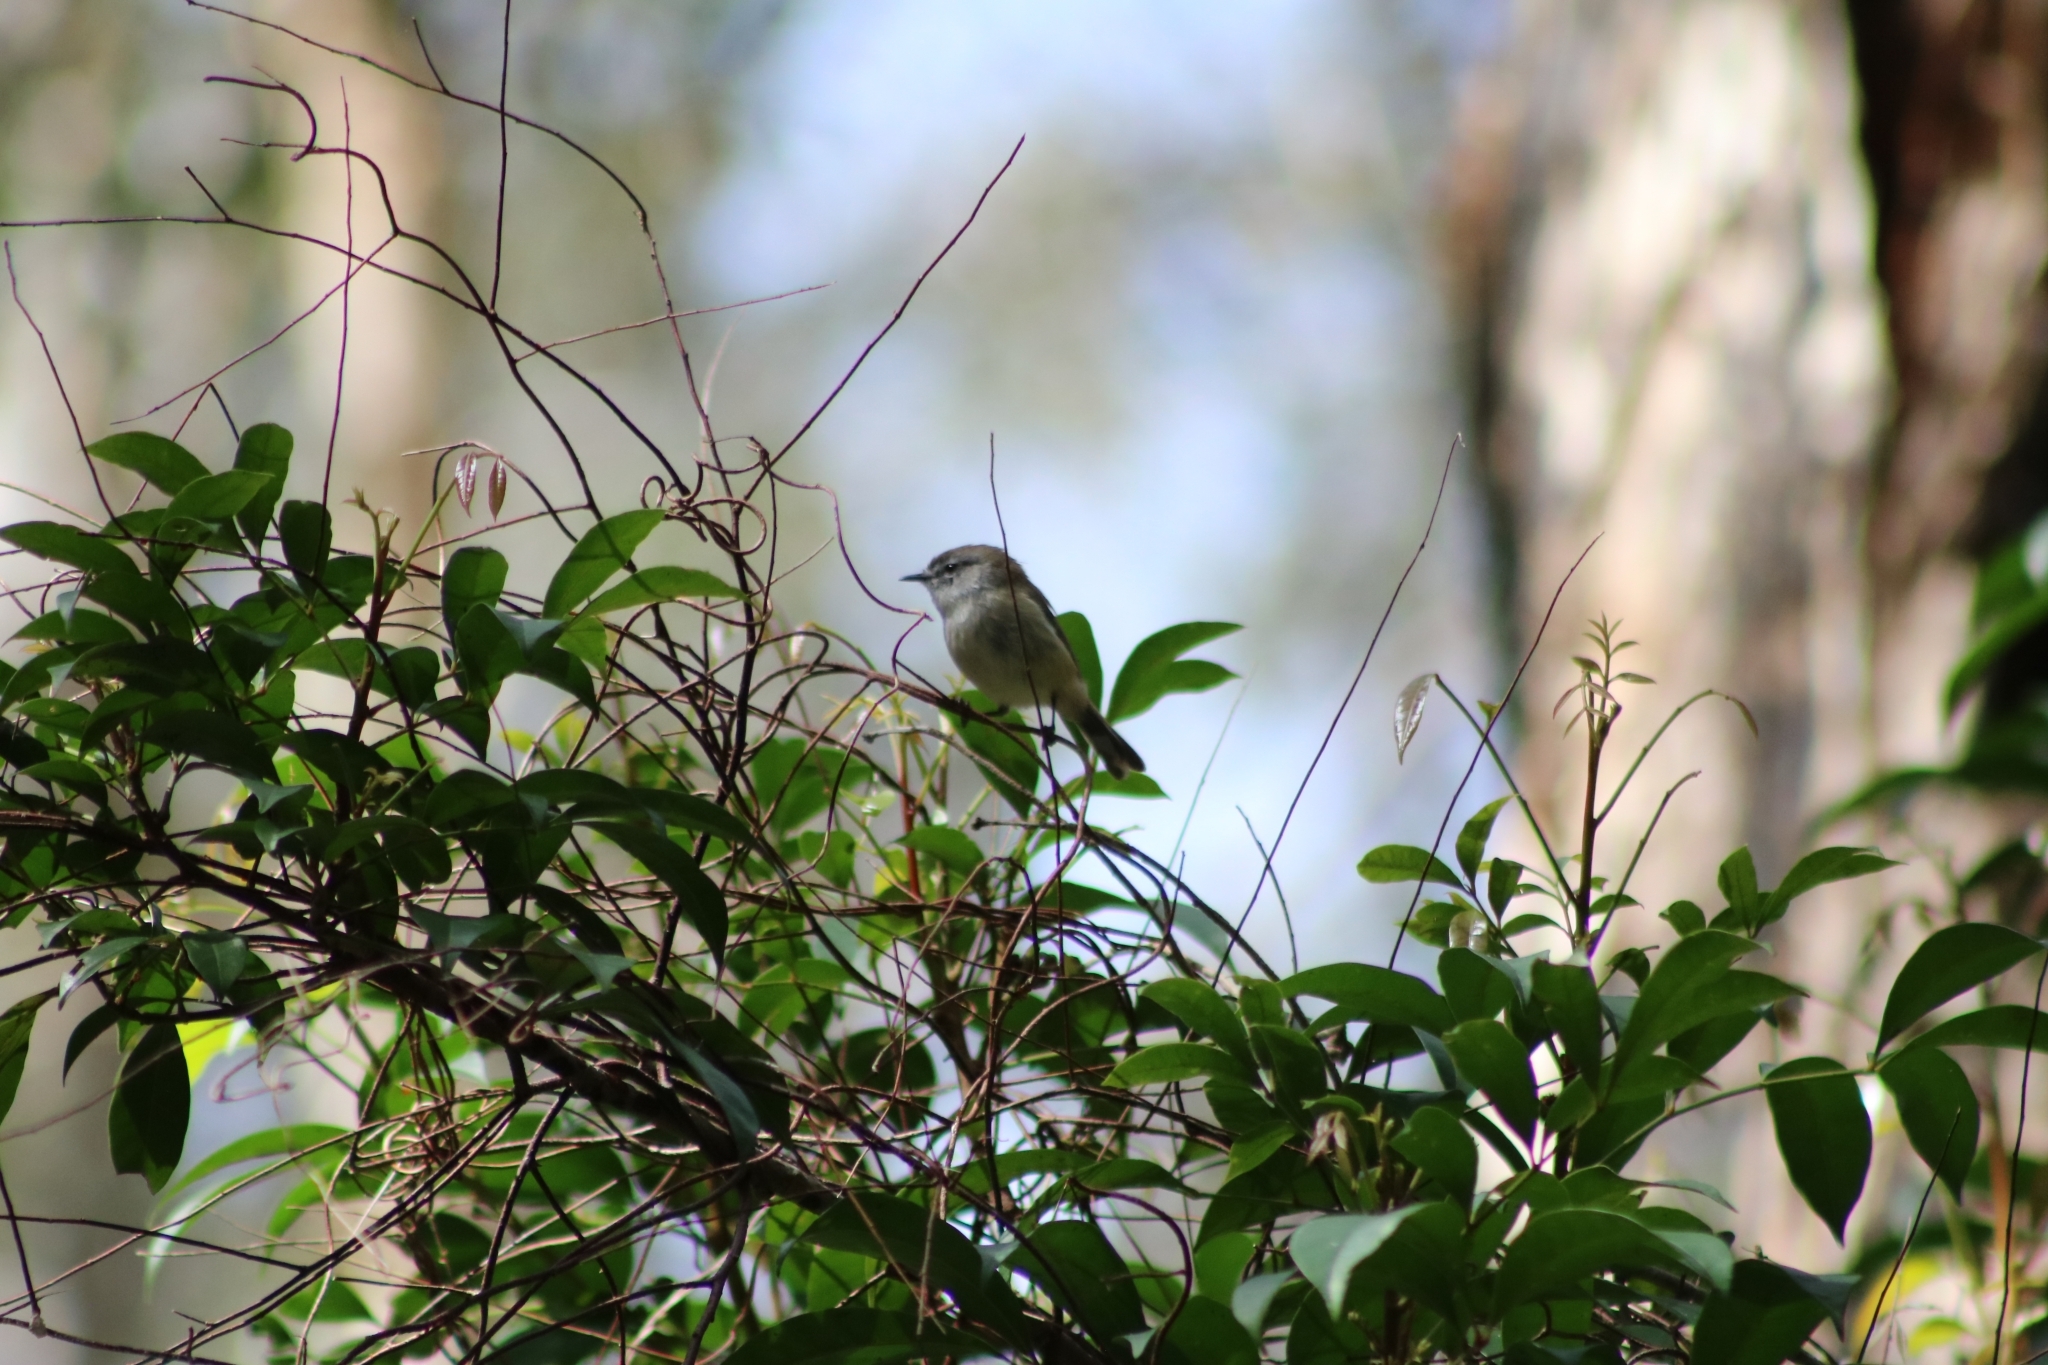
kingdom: Animalia
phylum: Chordata
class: Aves
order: Passeriformes
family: Acanthizidae
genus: Gerygone
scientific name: Gerygone mouki
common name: Brown gerygone
